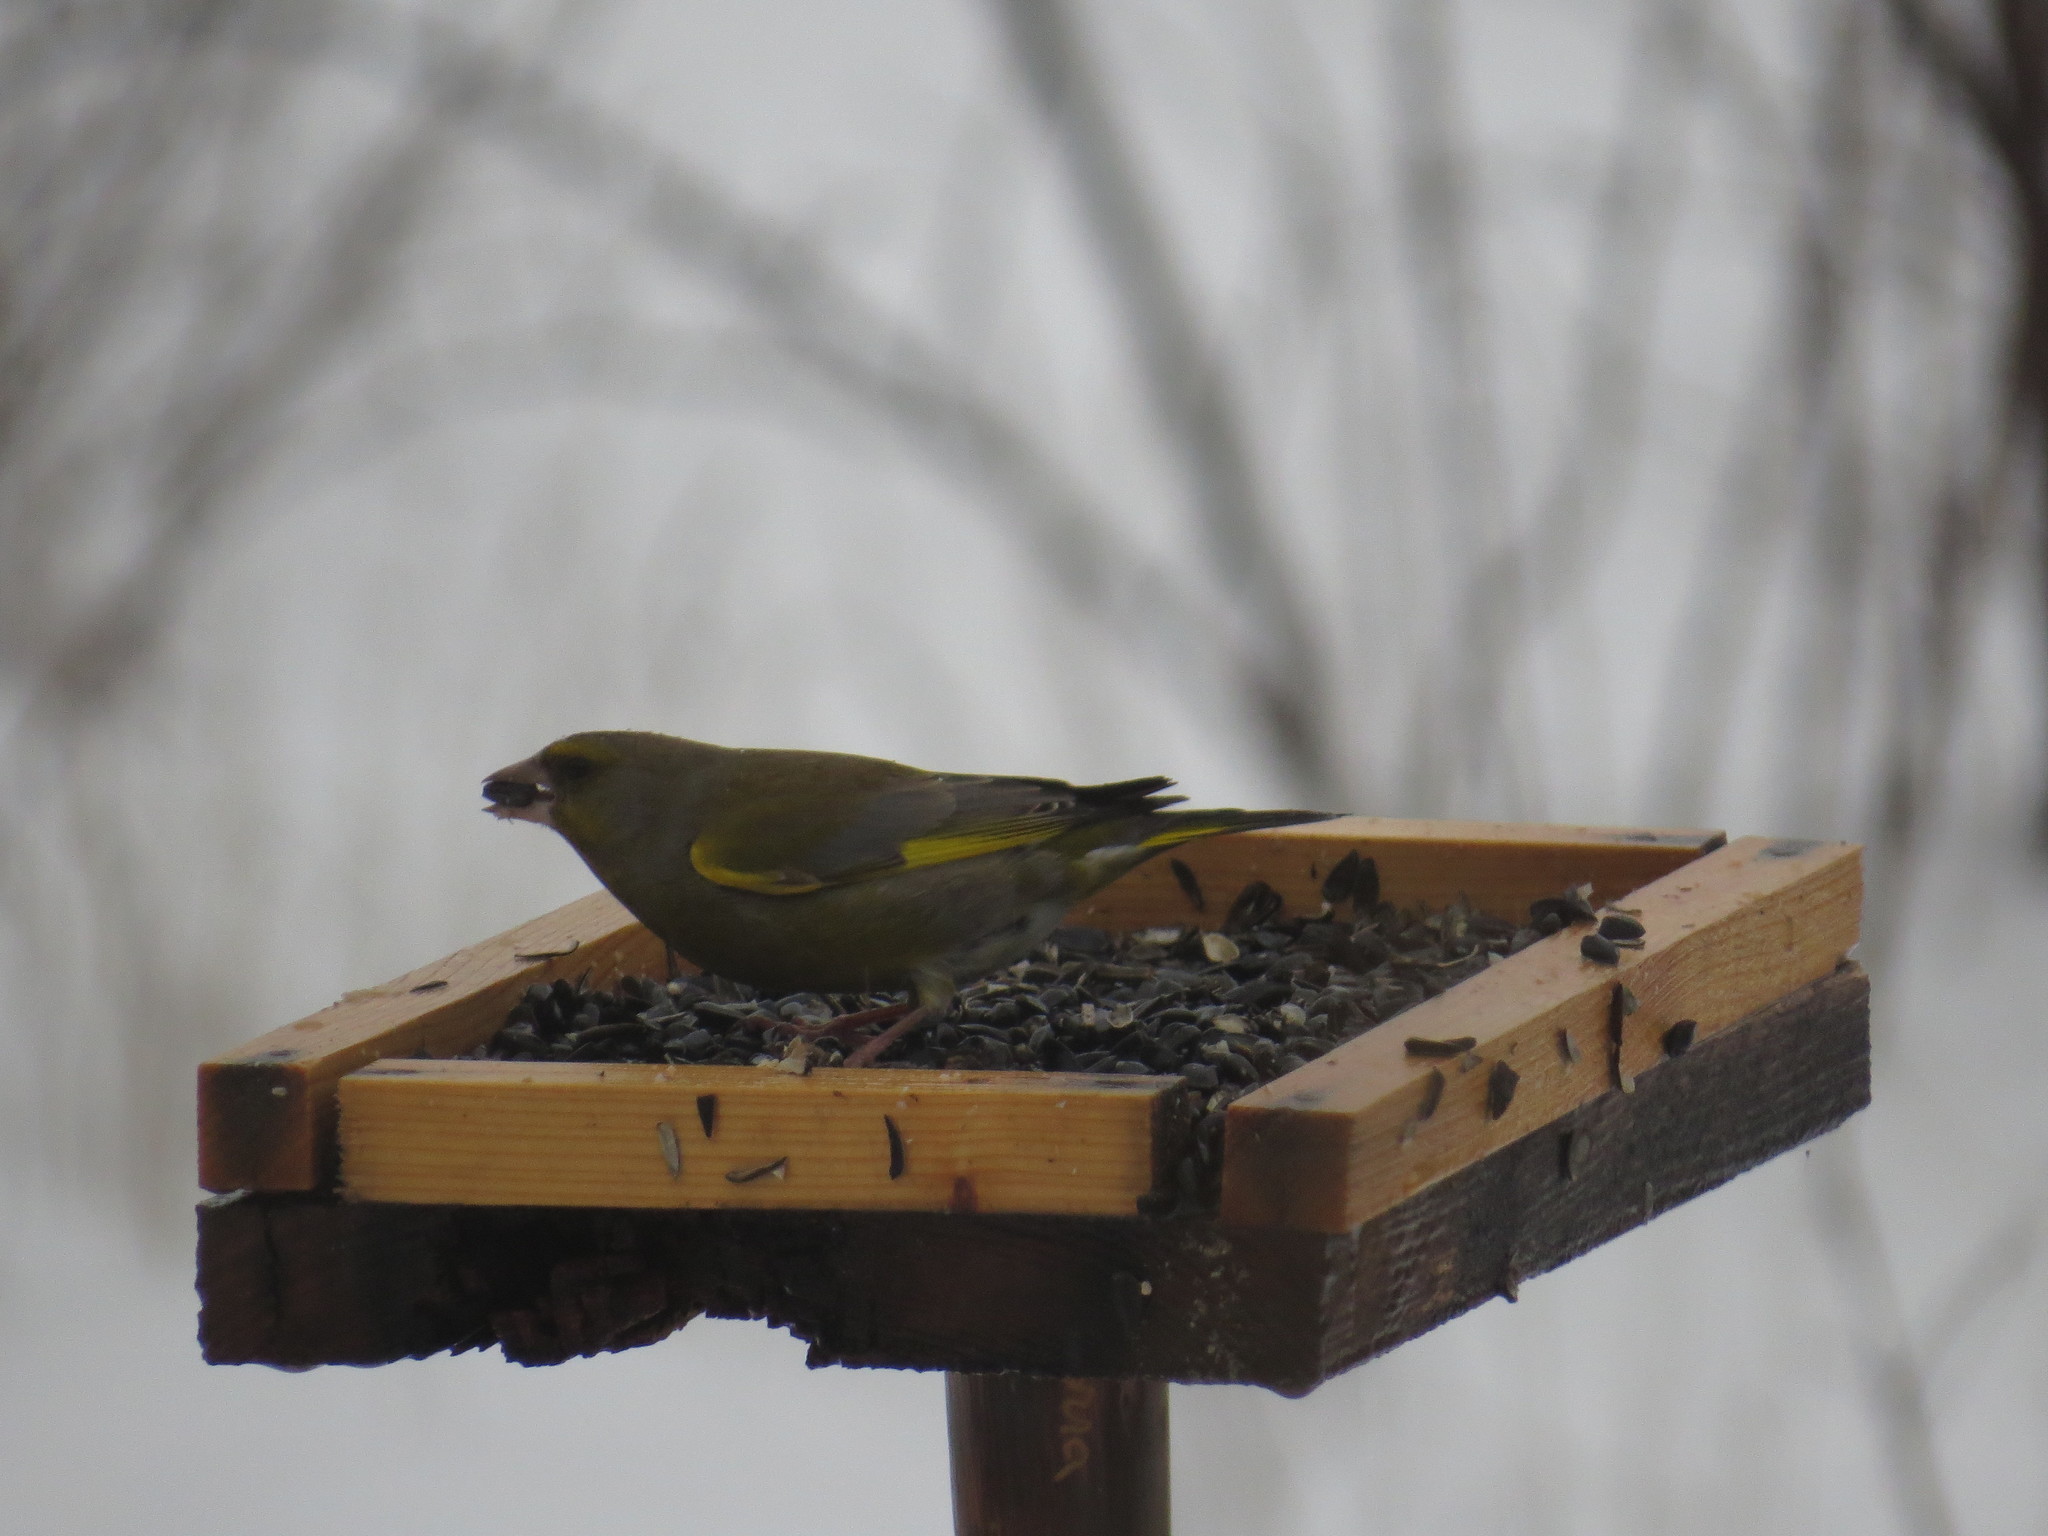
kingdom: Plantae
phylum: Tracheophyta
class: Liliopsida
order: Poales
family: Poaceae
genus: Chloris
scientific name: Chloris chloris
